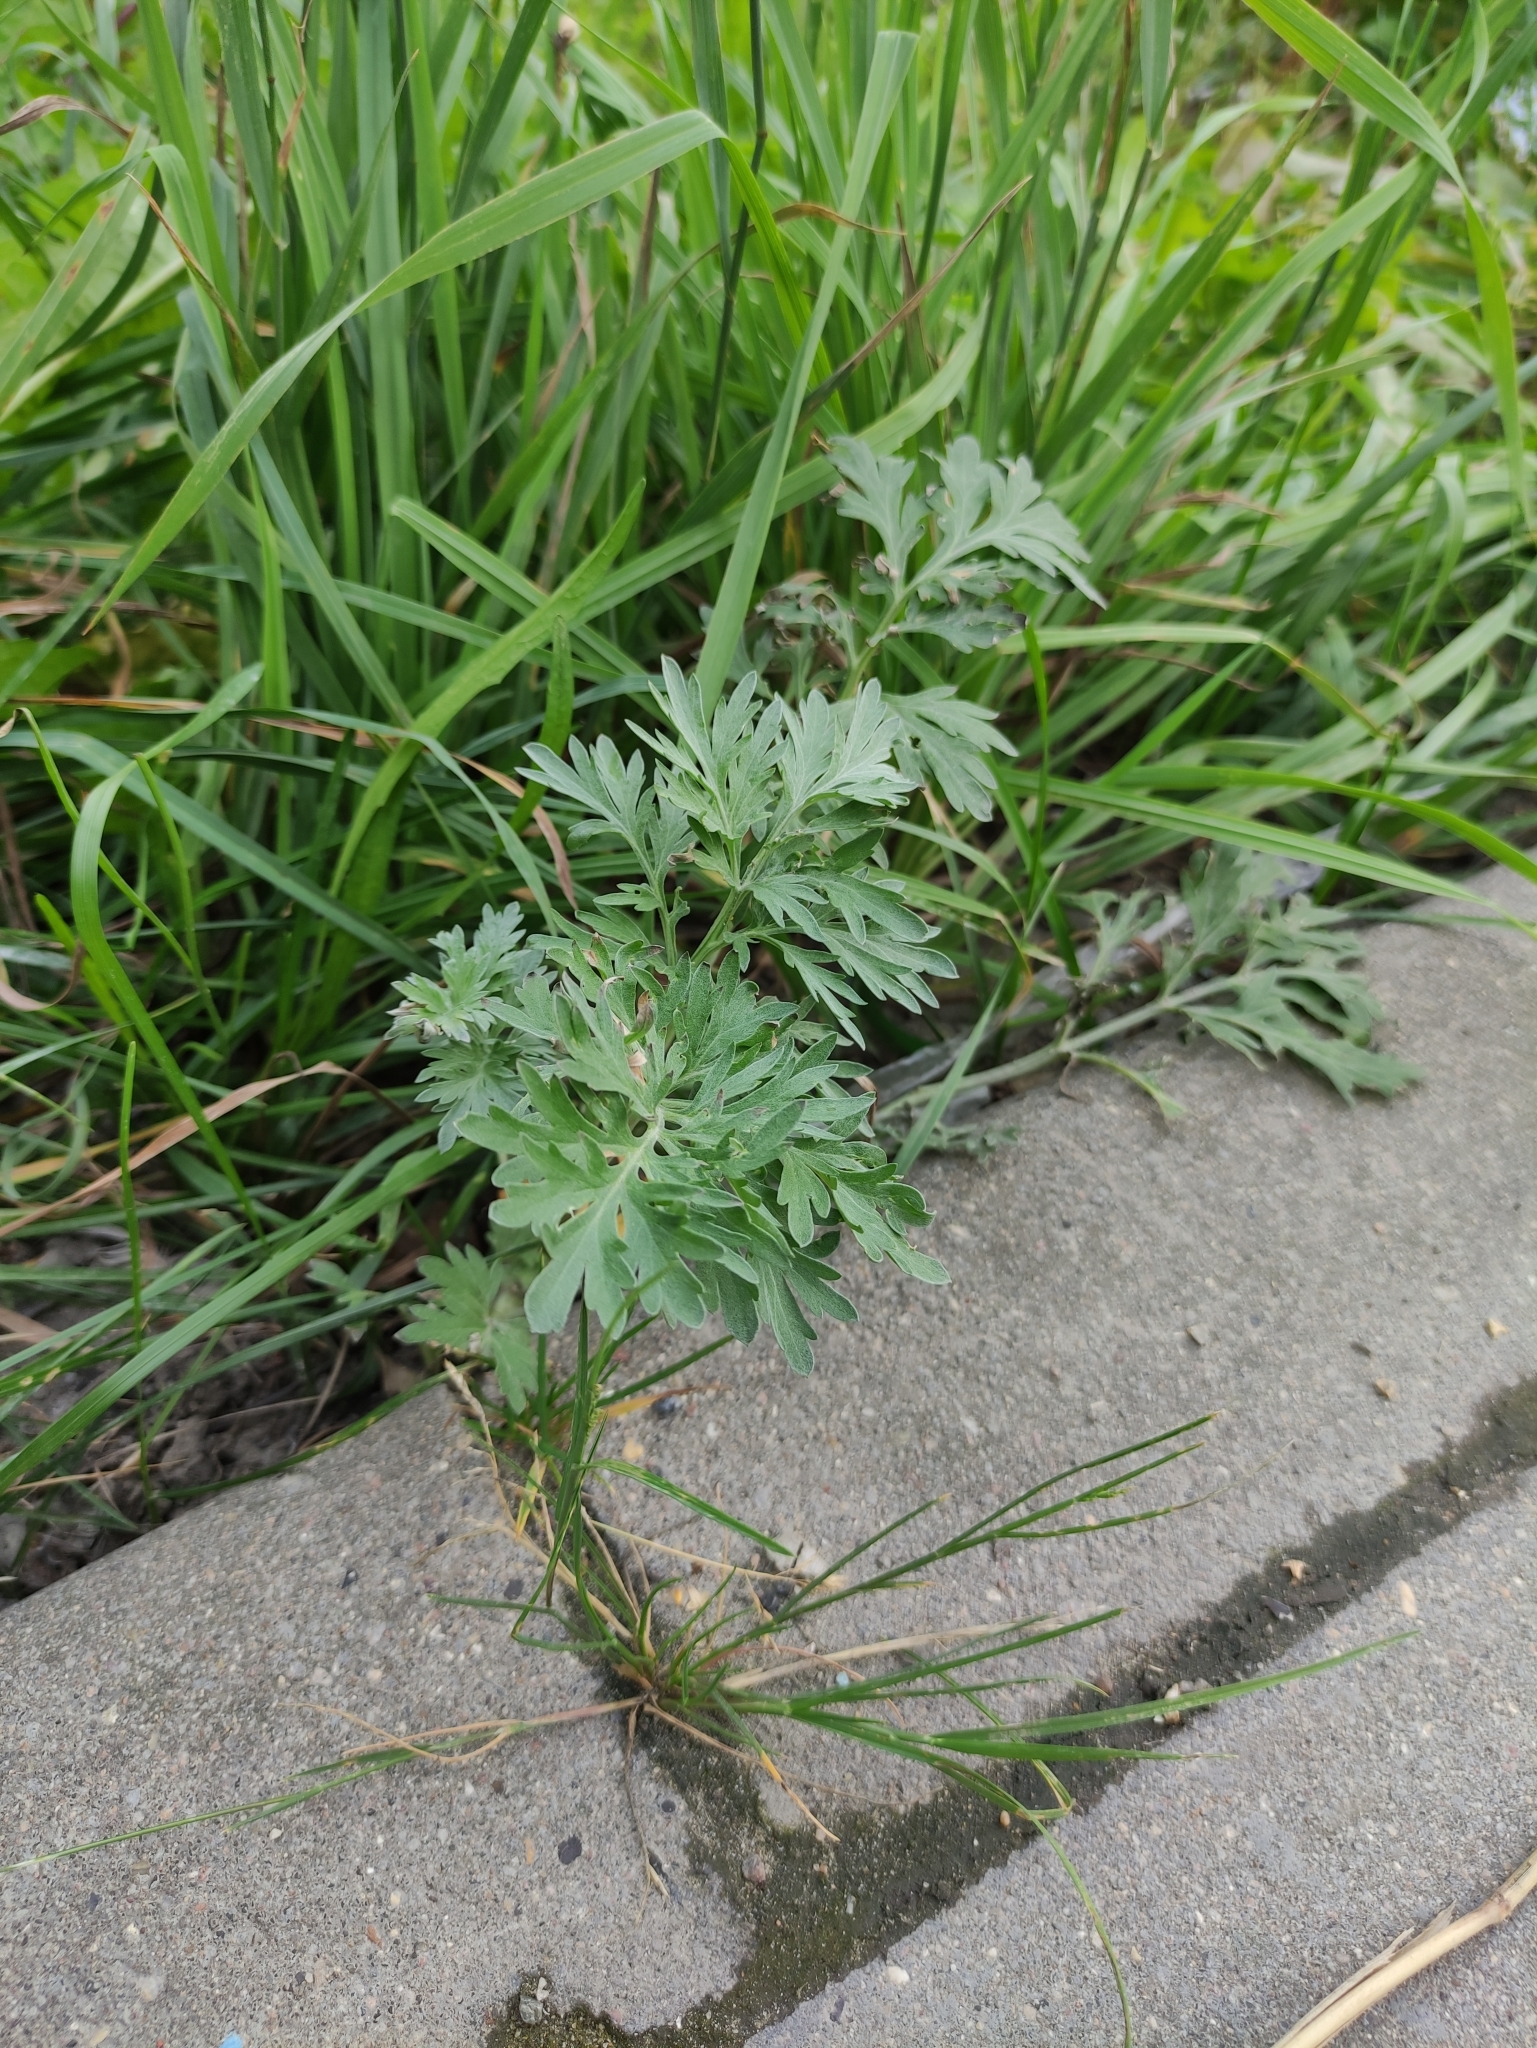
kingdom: Plantae
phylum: Tracheophyta
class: Magnoliopsida
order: Asterales
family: Asteraceae
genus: Artemisia
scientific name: Artemisia absinthium
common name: Wormwood
